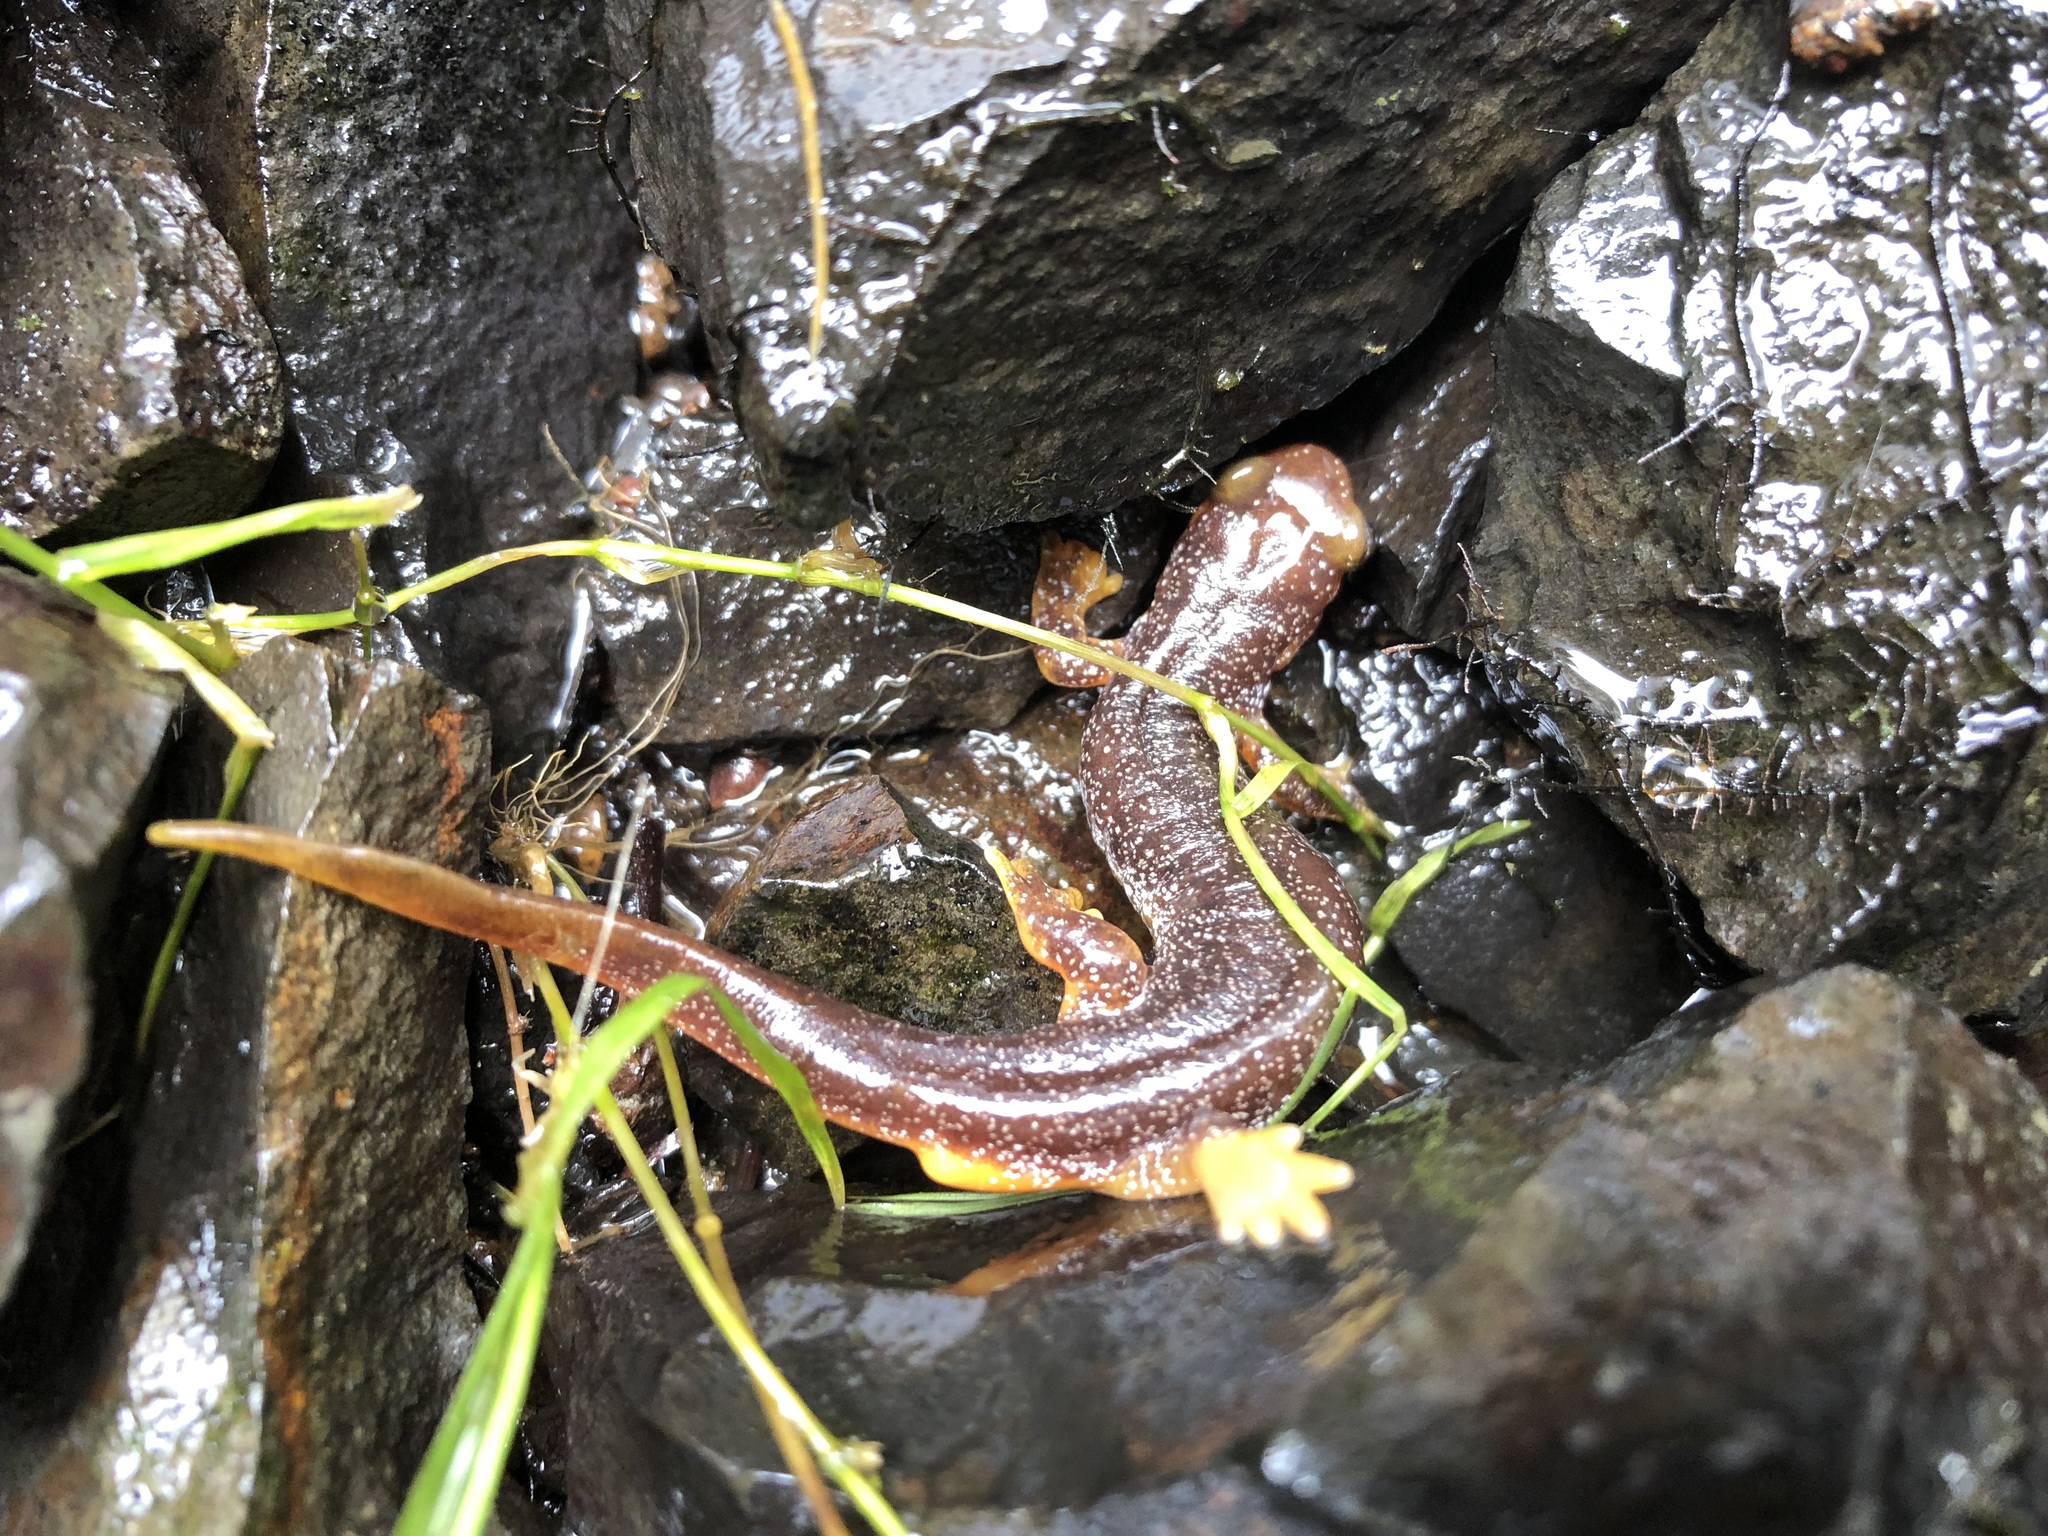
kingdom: Animalia
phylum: Chordata
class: Amphibia
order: Caudata
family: Rhyacotritonidae
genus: Rhyacotriton
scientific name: Rhyacotriton kezeri
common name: Columbia torrent salamander
